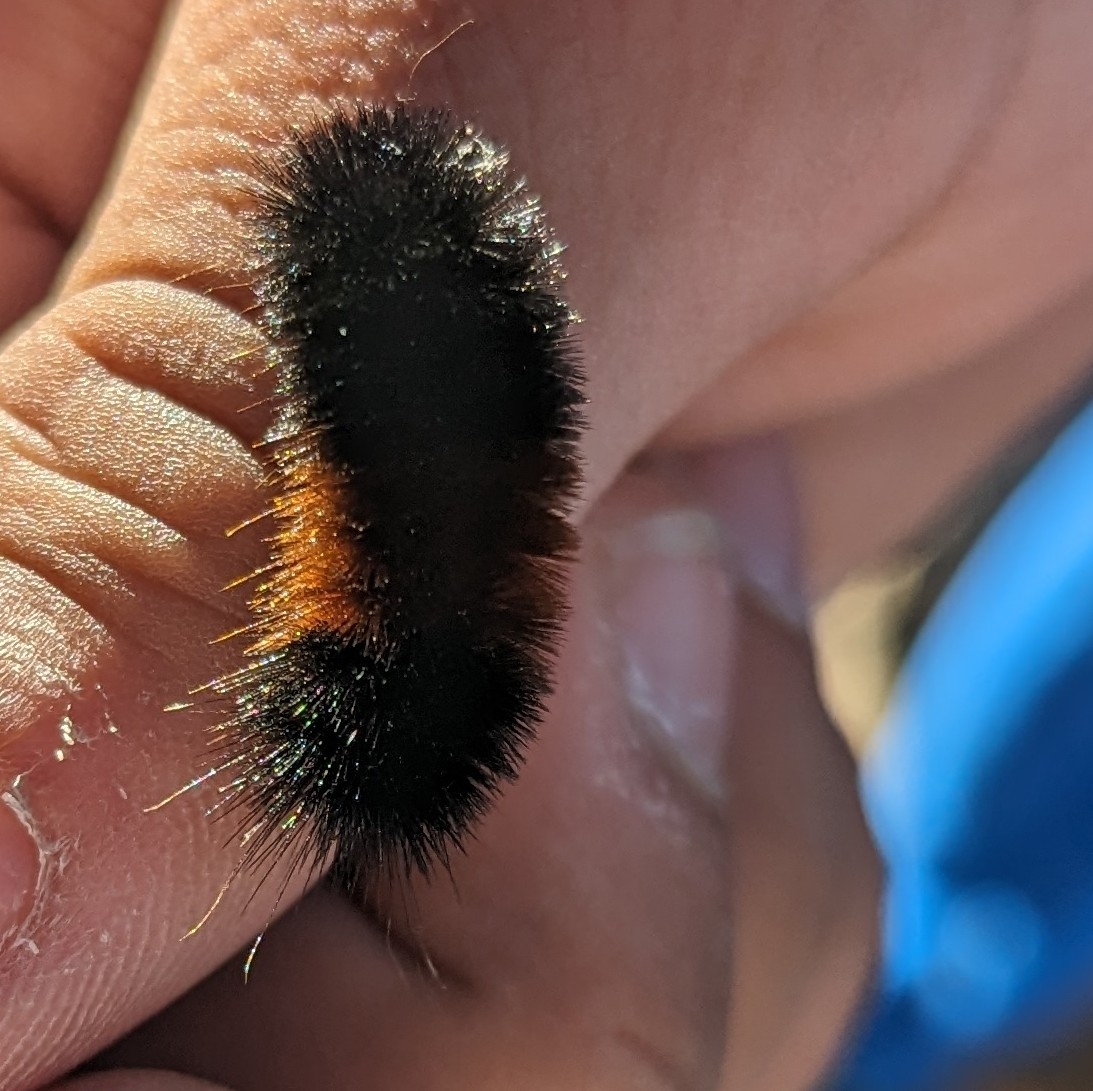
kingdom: Animalia
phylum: Arthropoda
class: Insecta
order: Lepidoptera
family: Erebidae
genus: Pyrrharctia
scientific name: Pyrrharctia isabella
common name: Isabella tiger moth
